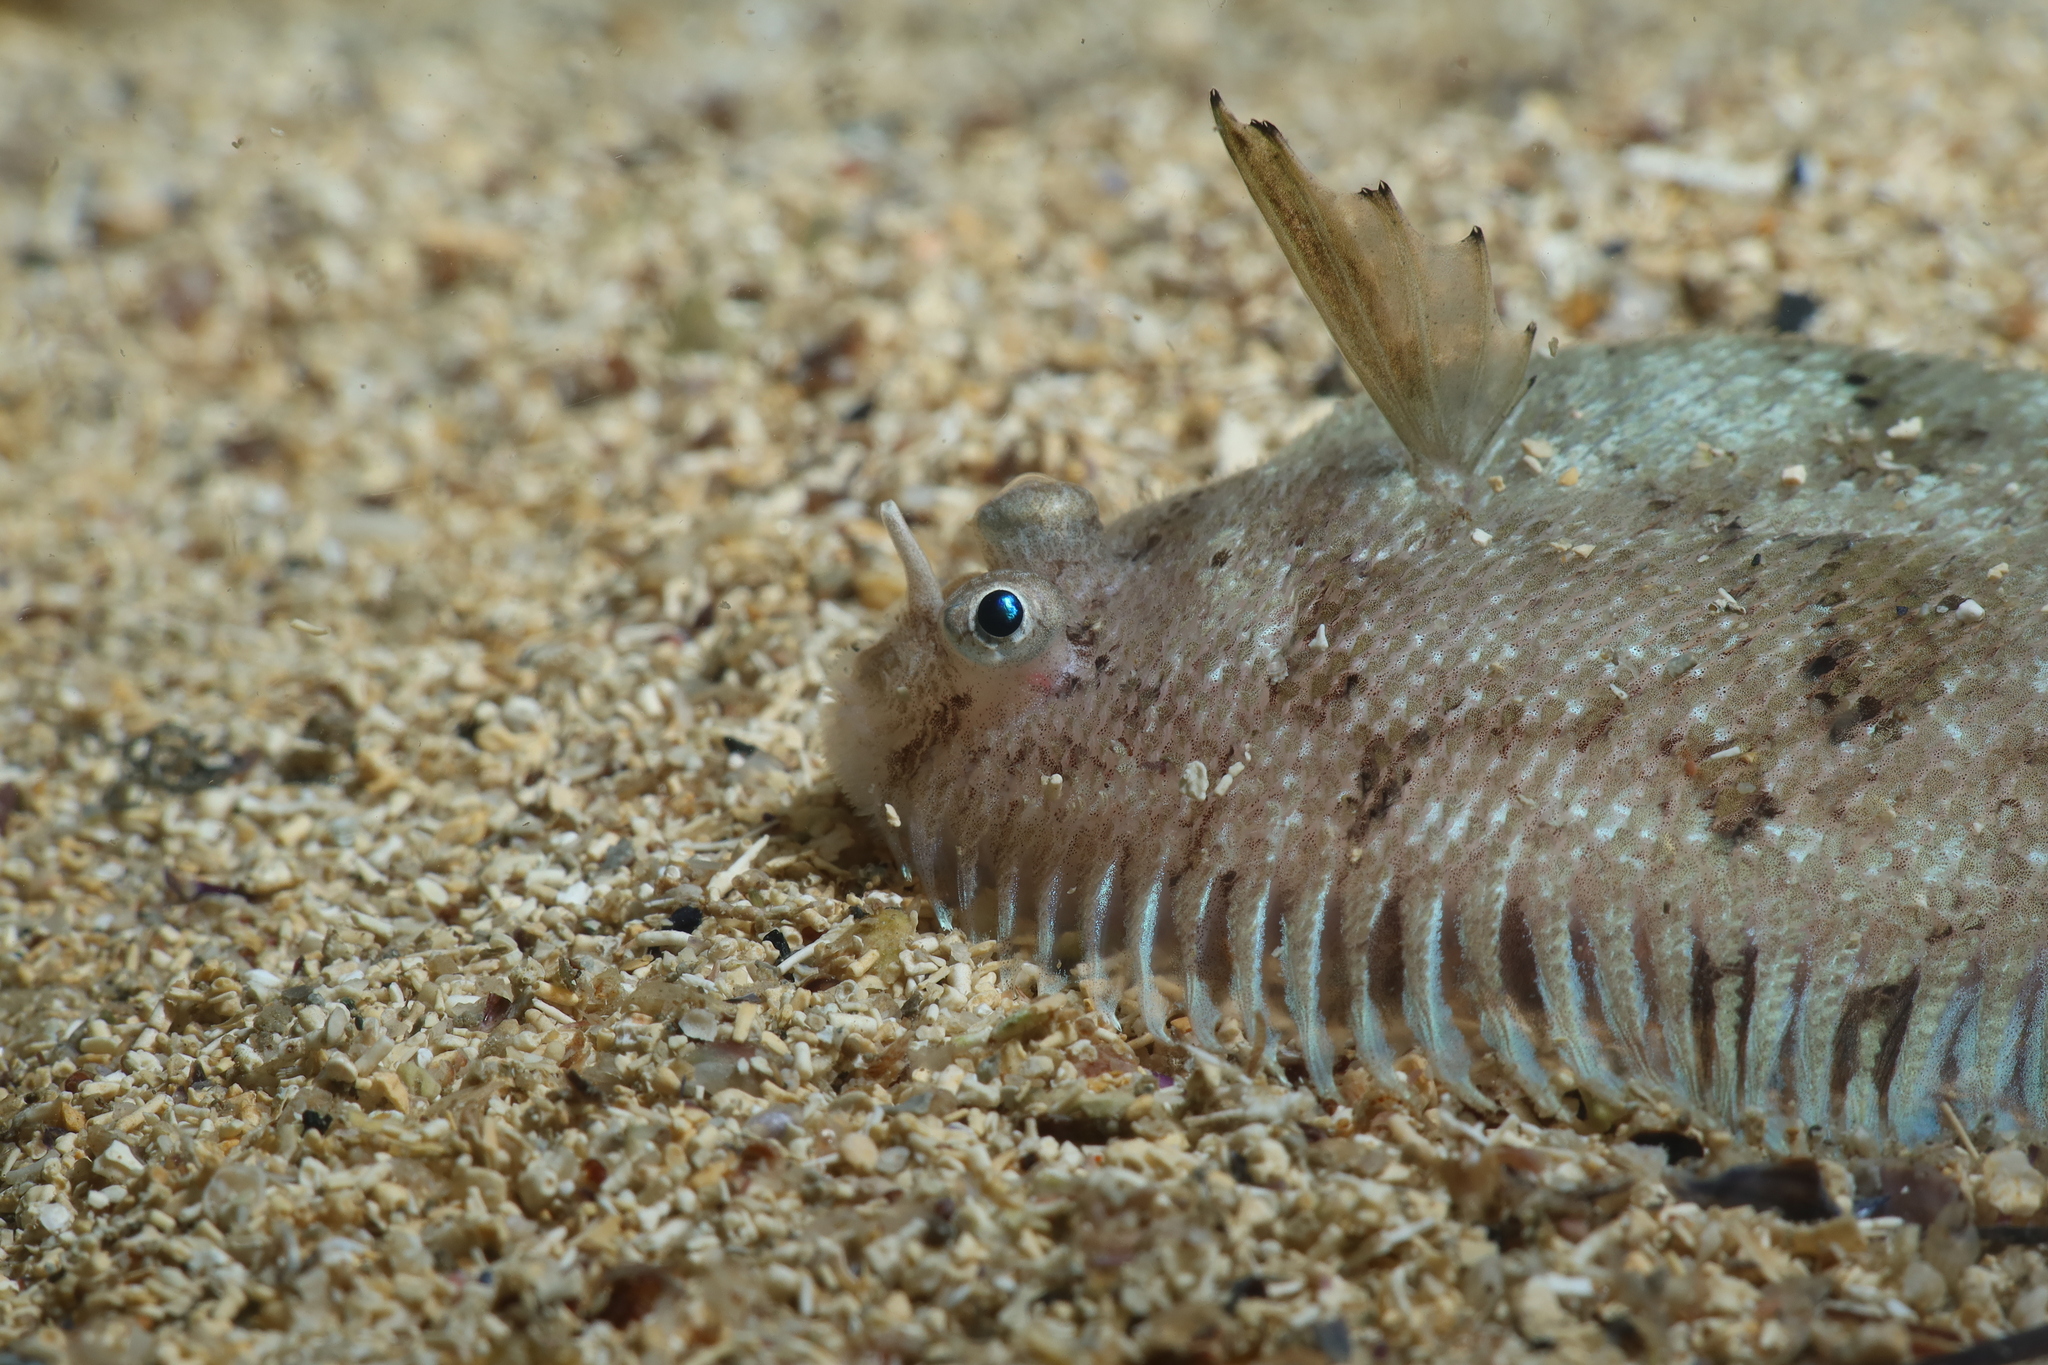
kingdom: Animalia
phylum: Chordata
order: Pleuronectiformes
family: Soleidae
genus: Monochirus
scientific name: Monochirus hispidus
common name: Whiskered sole
